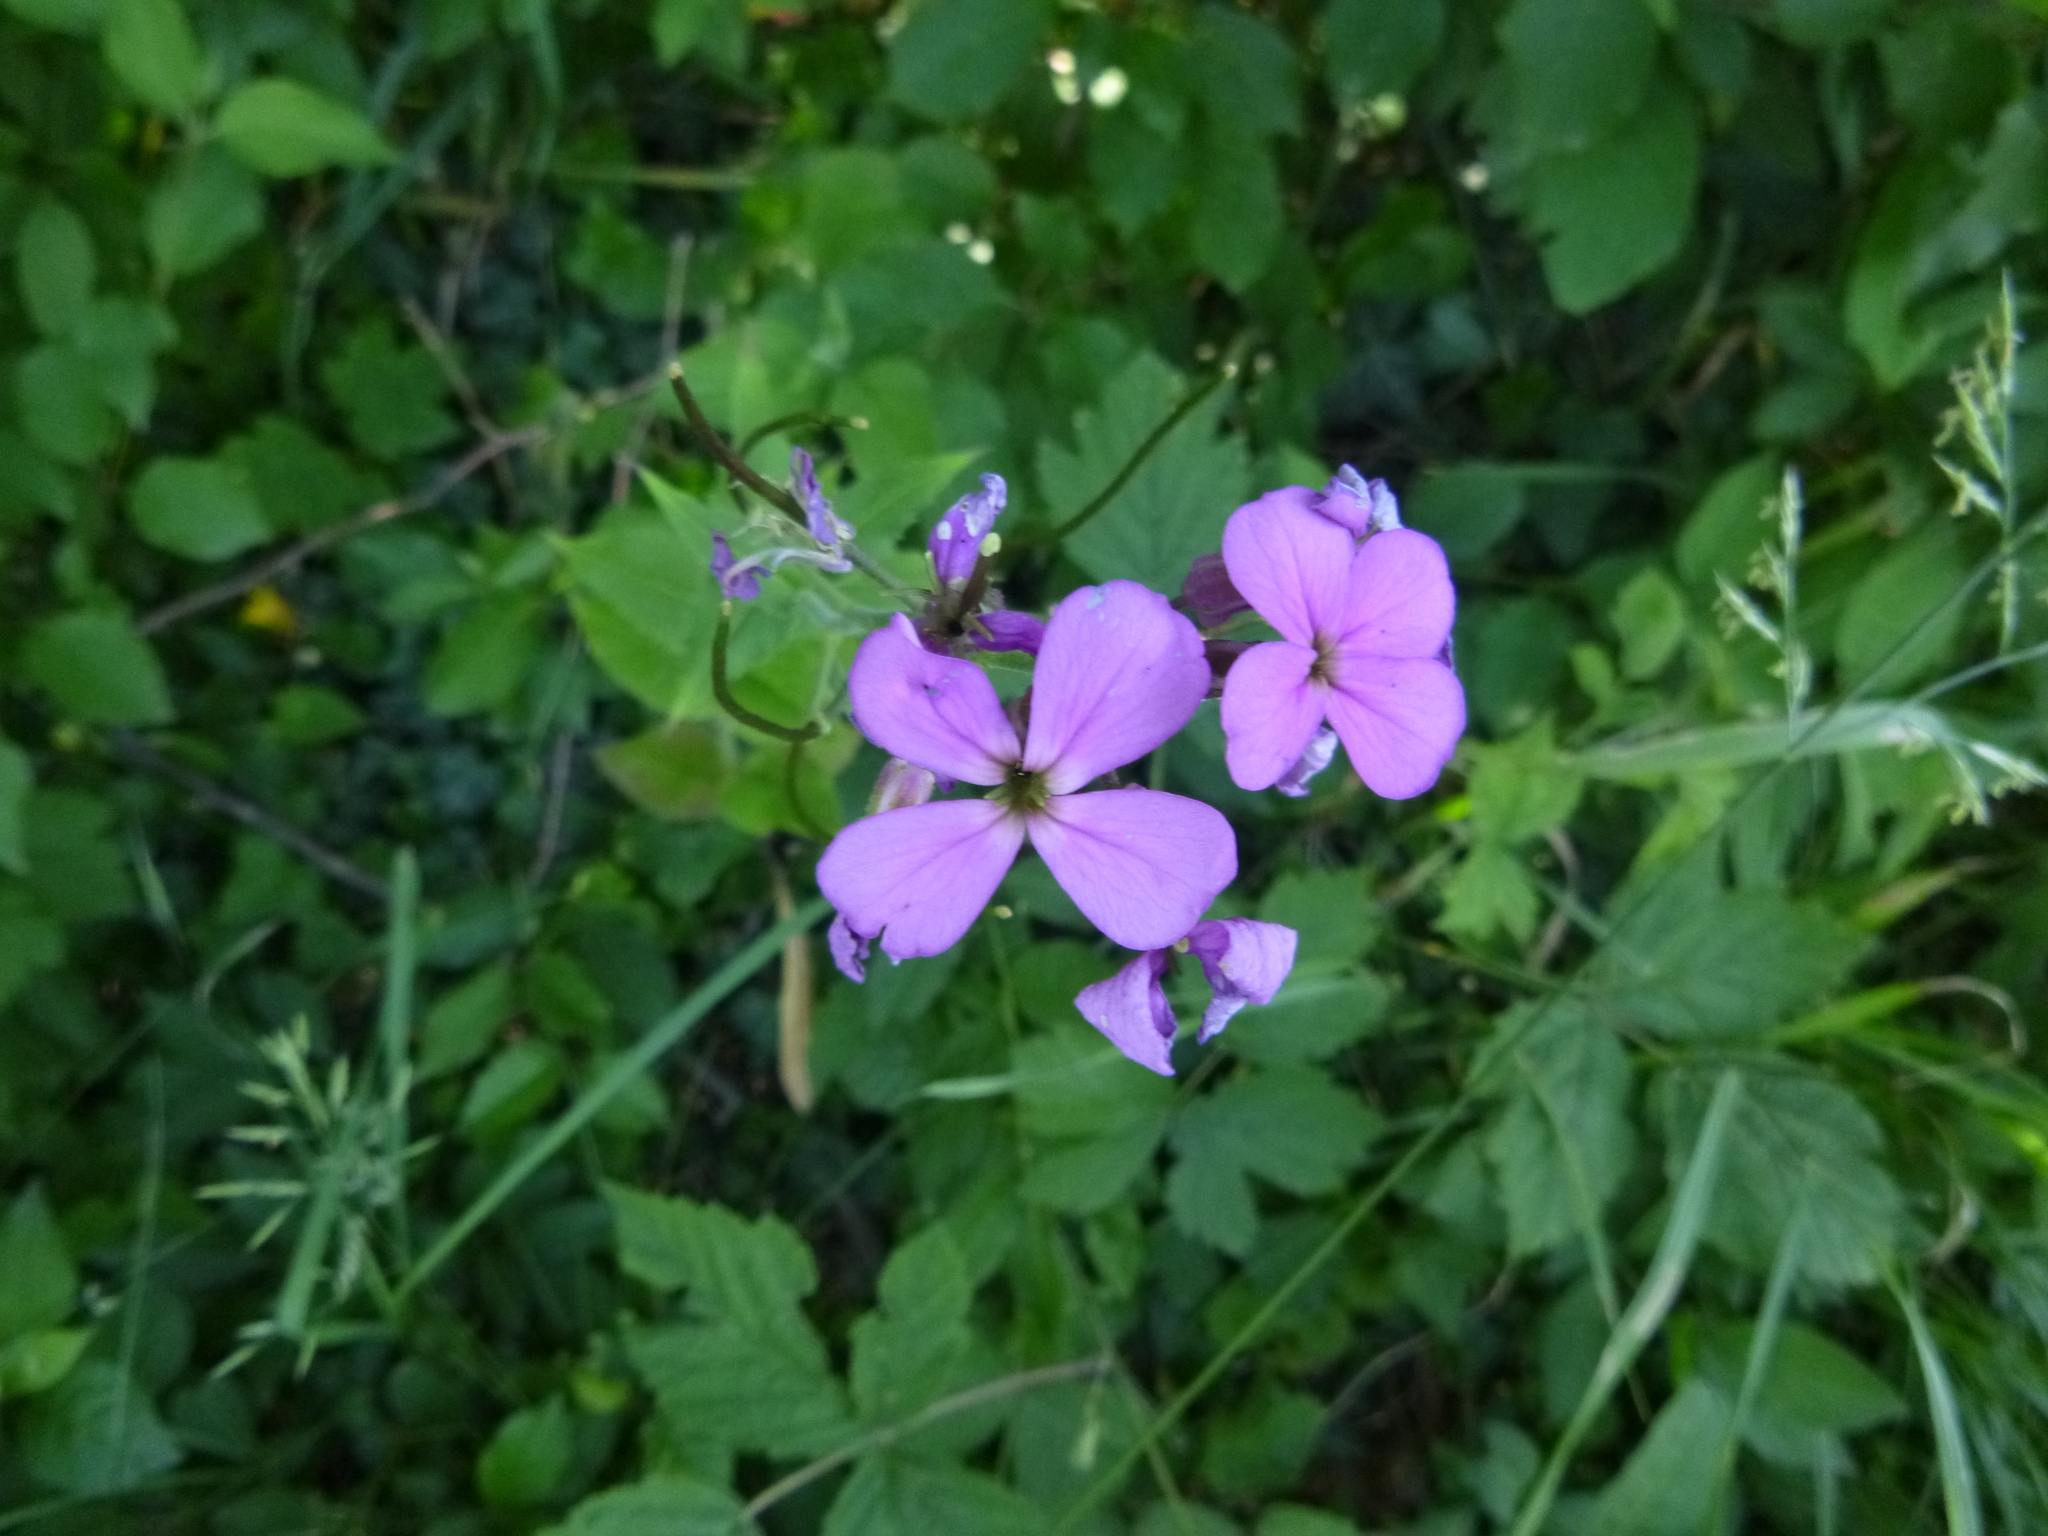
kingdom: Plantae
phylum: Tracheophyta
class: Magnoliopsida
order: Brassicales
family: Brassicaceae
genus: Hesperis
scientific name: Hesperis matronalis
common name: Dame's-violet
